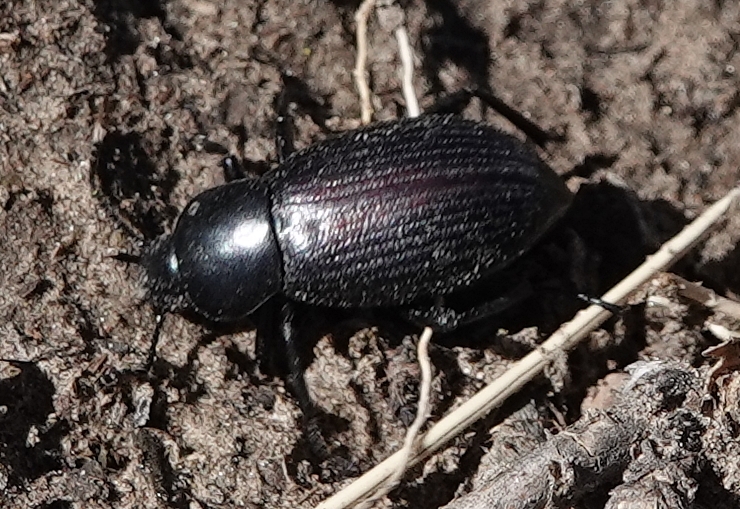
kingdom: Animalia
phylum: Arthropoda
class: Insecta
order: Coleoptera
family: Tenebrionidae
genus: Eleodes
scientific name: Eleodes carbonaria
